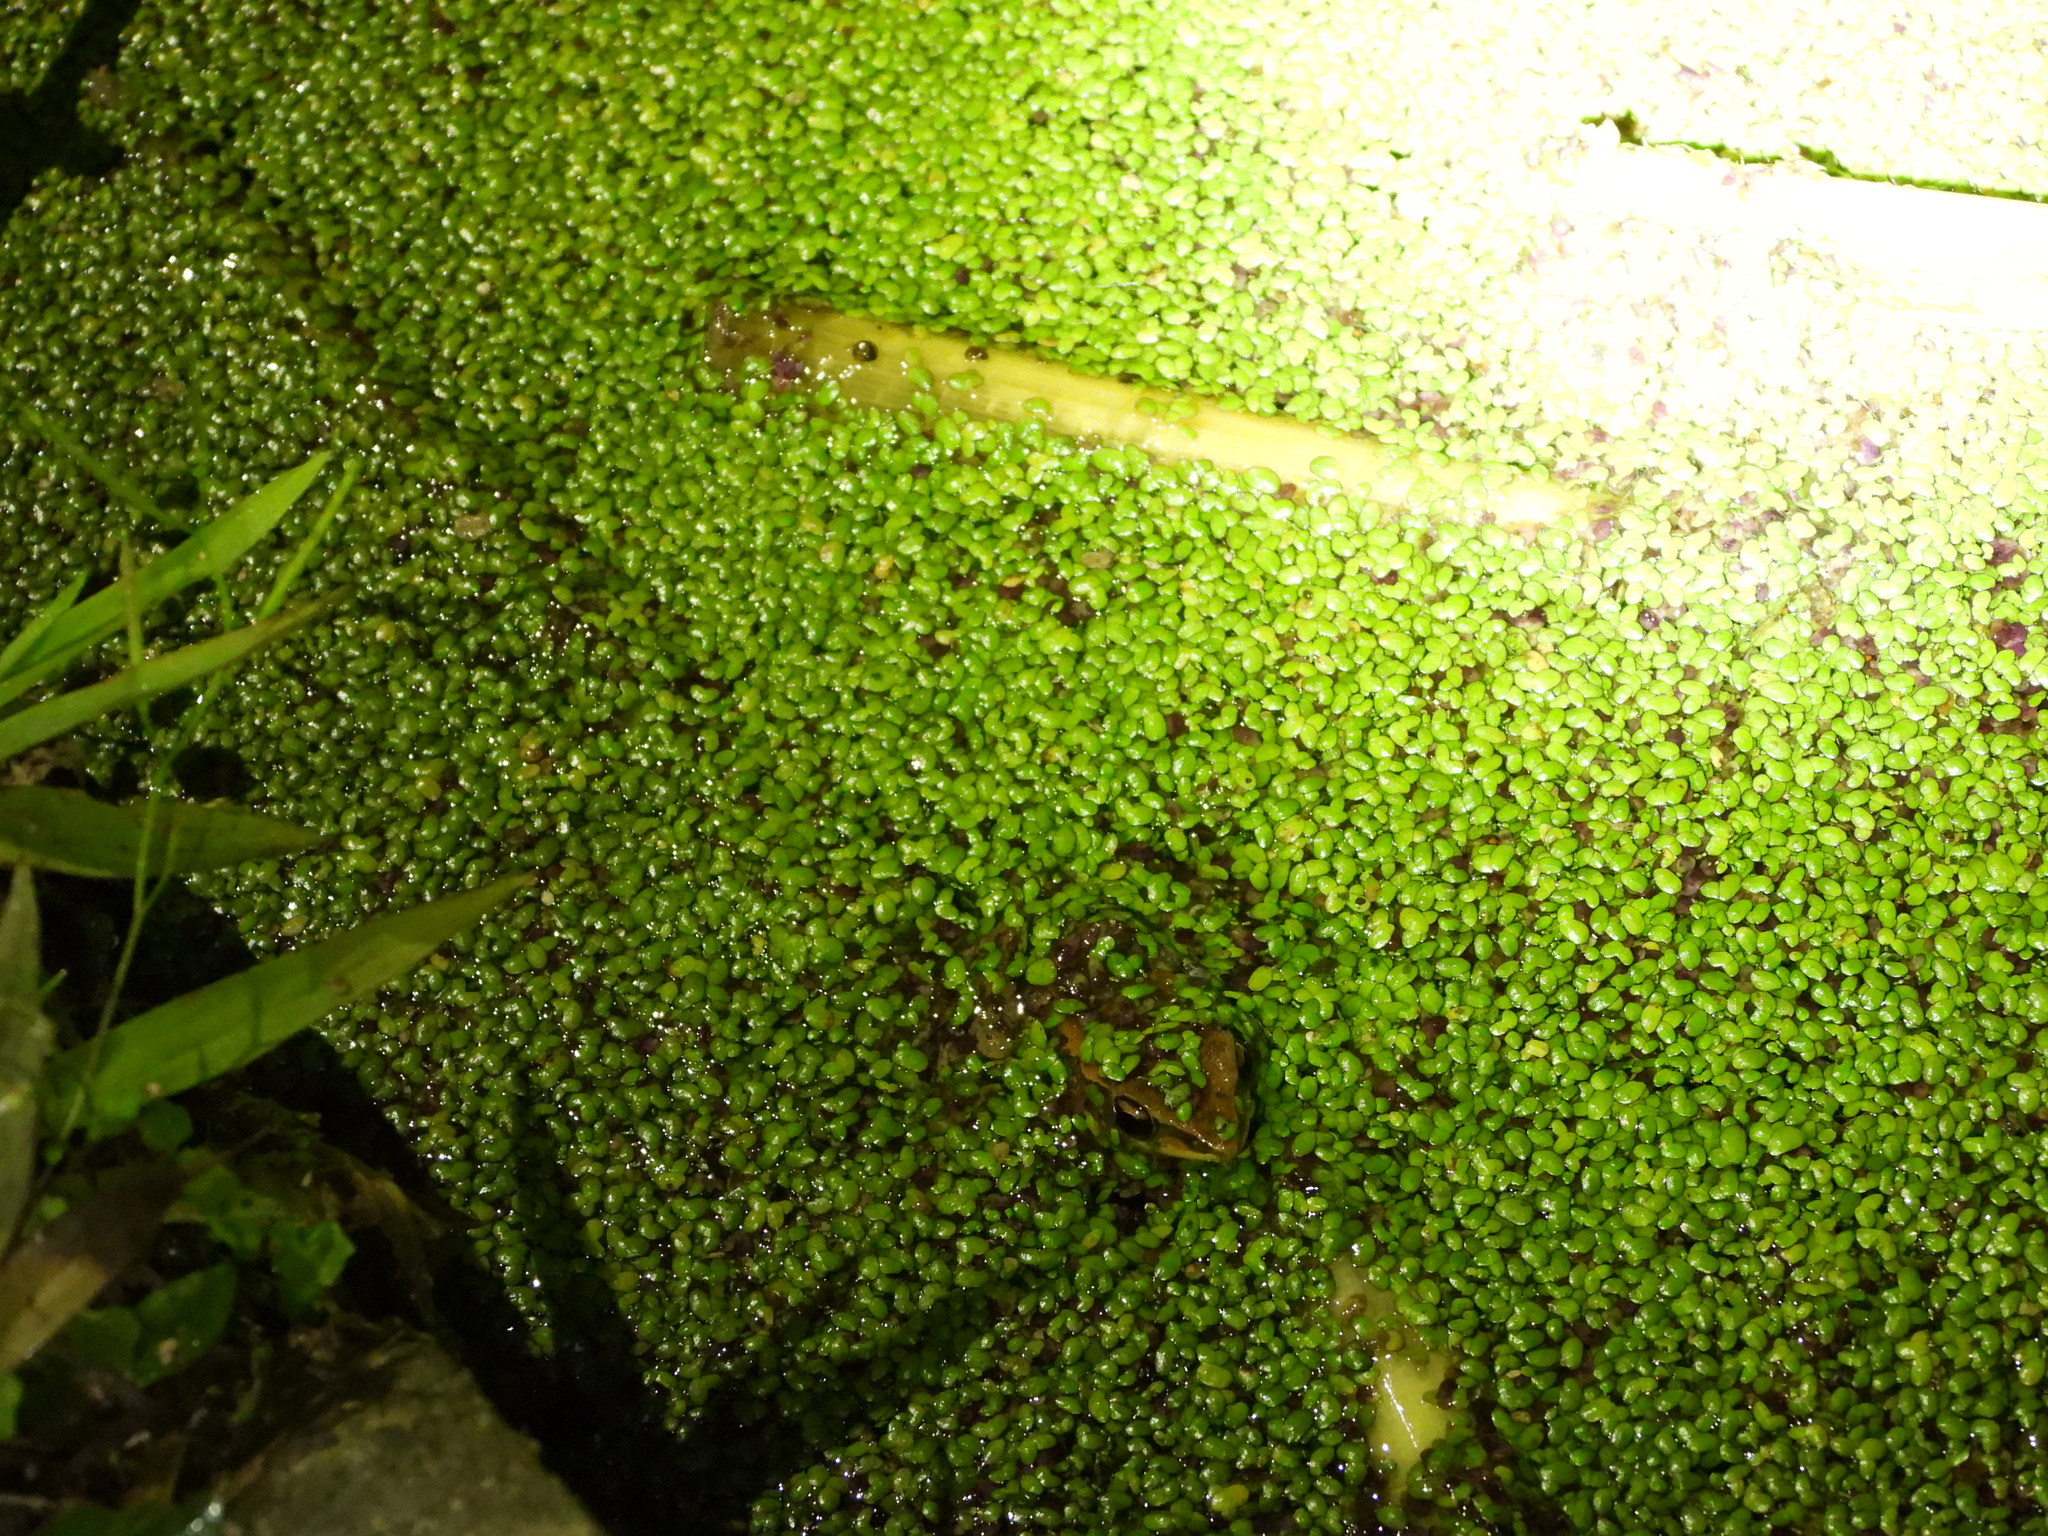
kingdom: Animalia
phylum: Chordata
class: Amphibia
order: Anura
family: Ranidae
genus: Hylarana
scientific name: Hylarana latouchii
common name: Broad-folded frog
